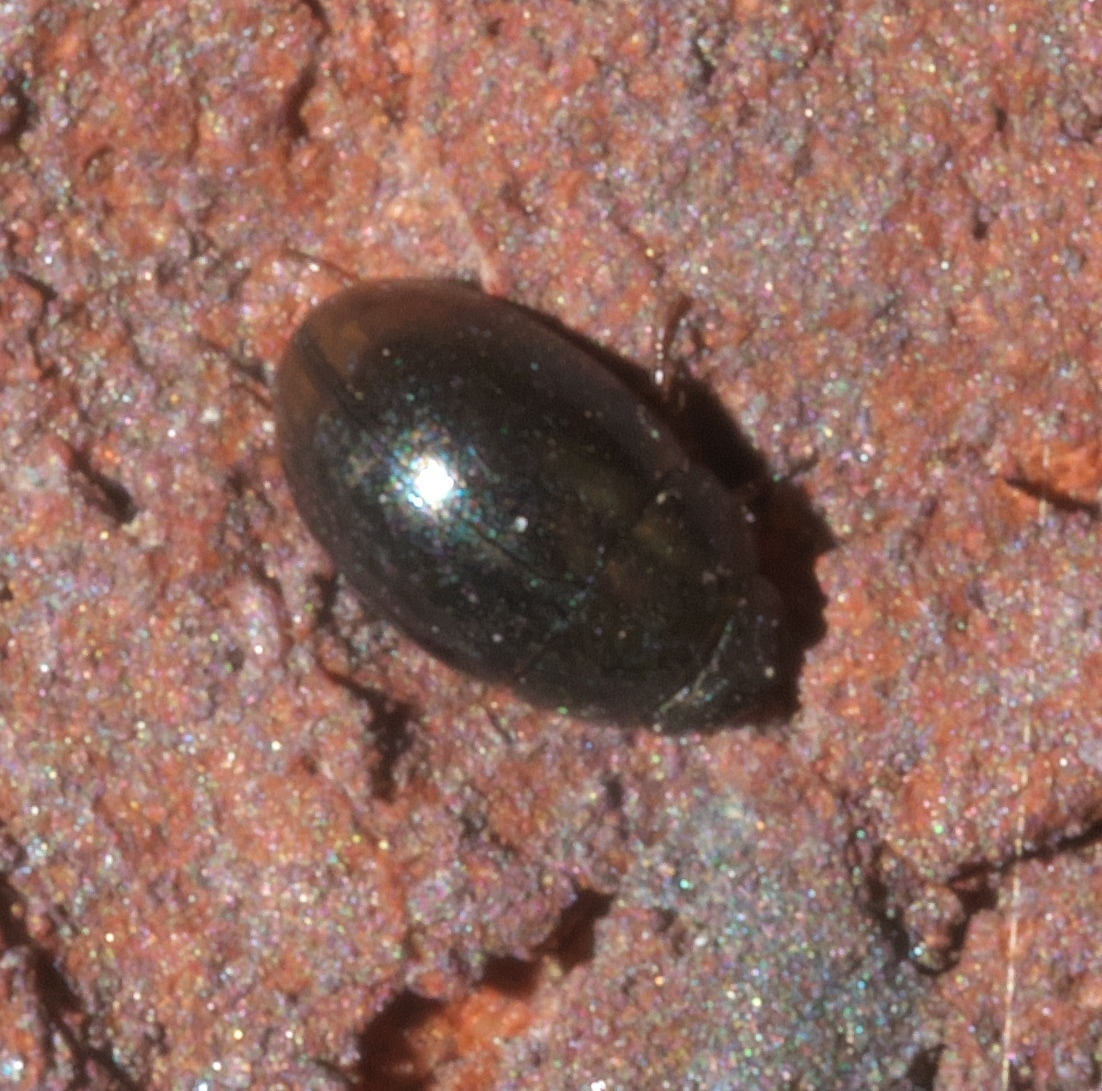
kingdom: Animalia
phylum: Arthropoda
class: Insecta
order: Coleoptera
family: Hydrophilidae
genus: Paracymus
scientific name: Paracymus
